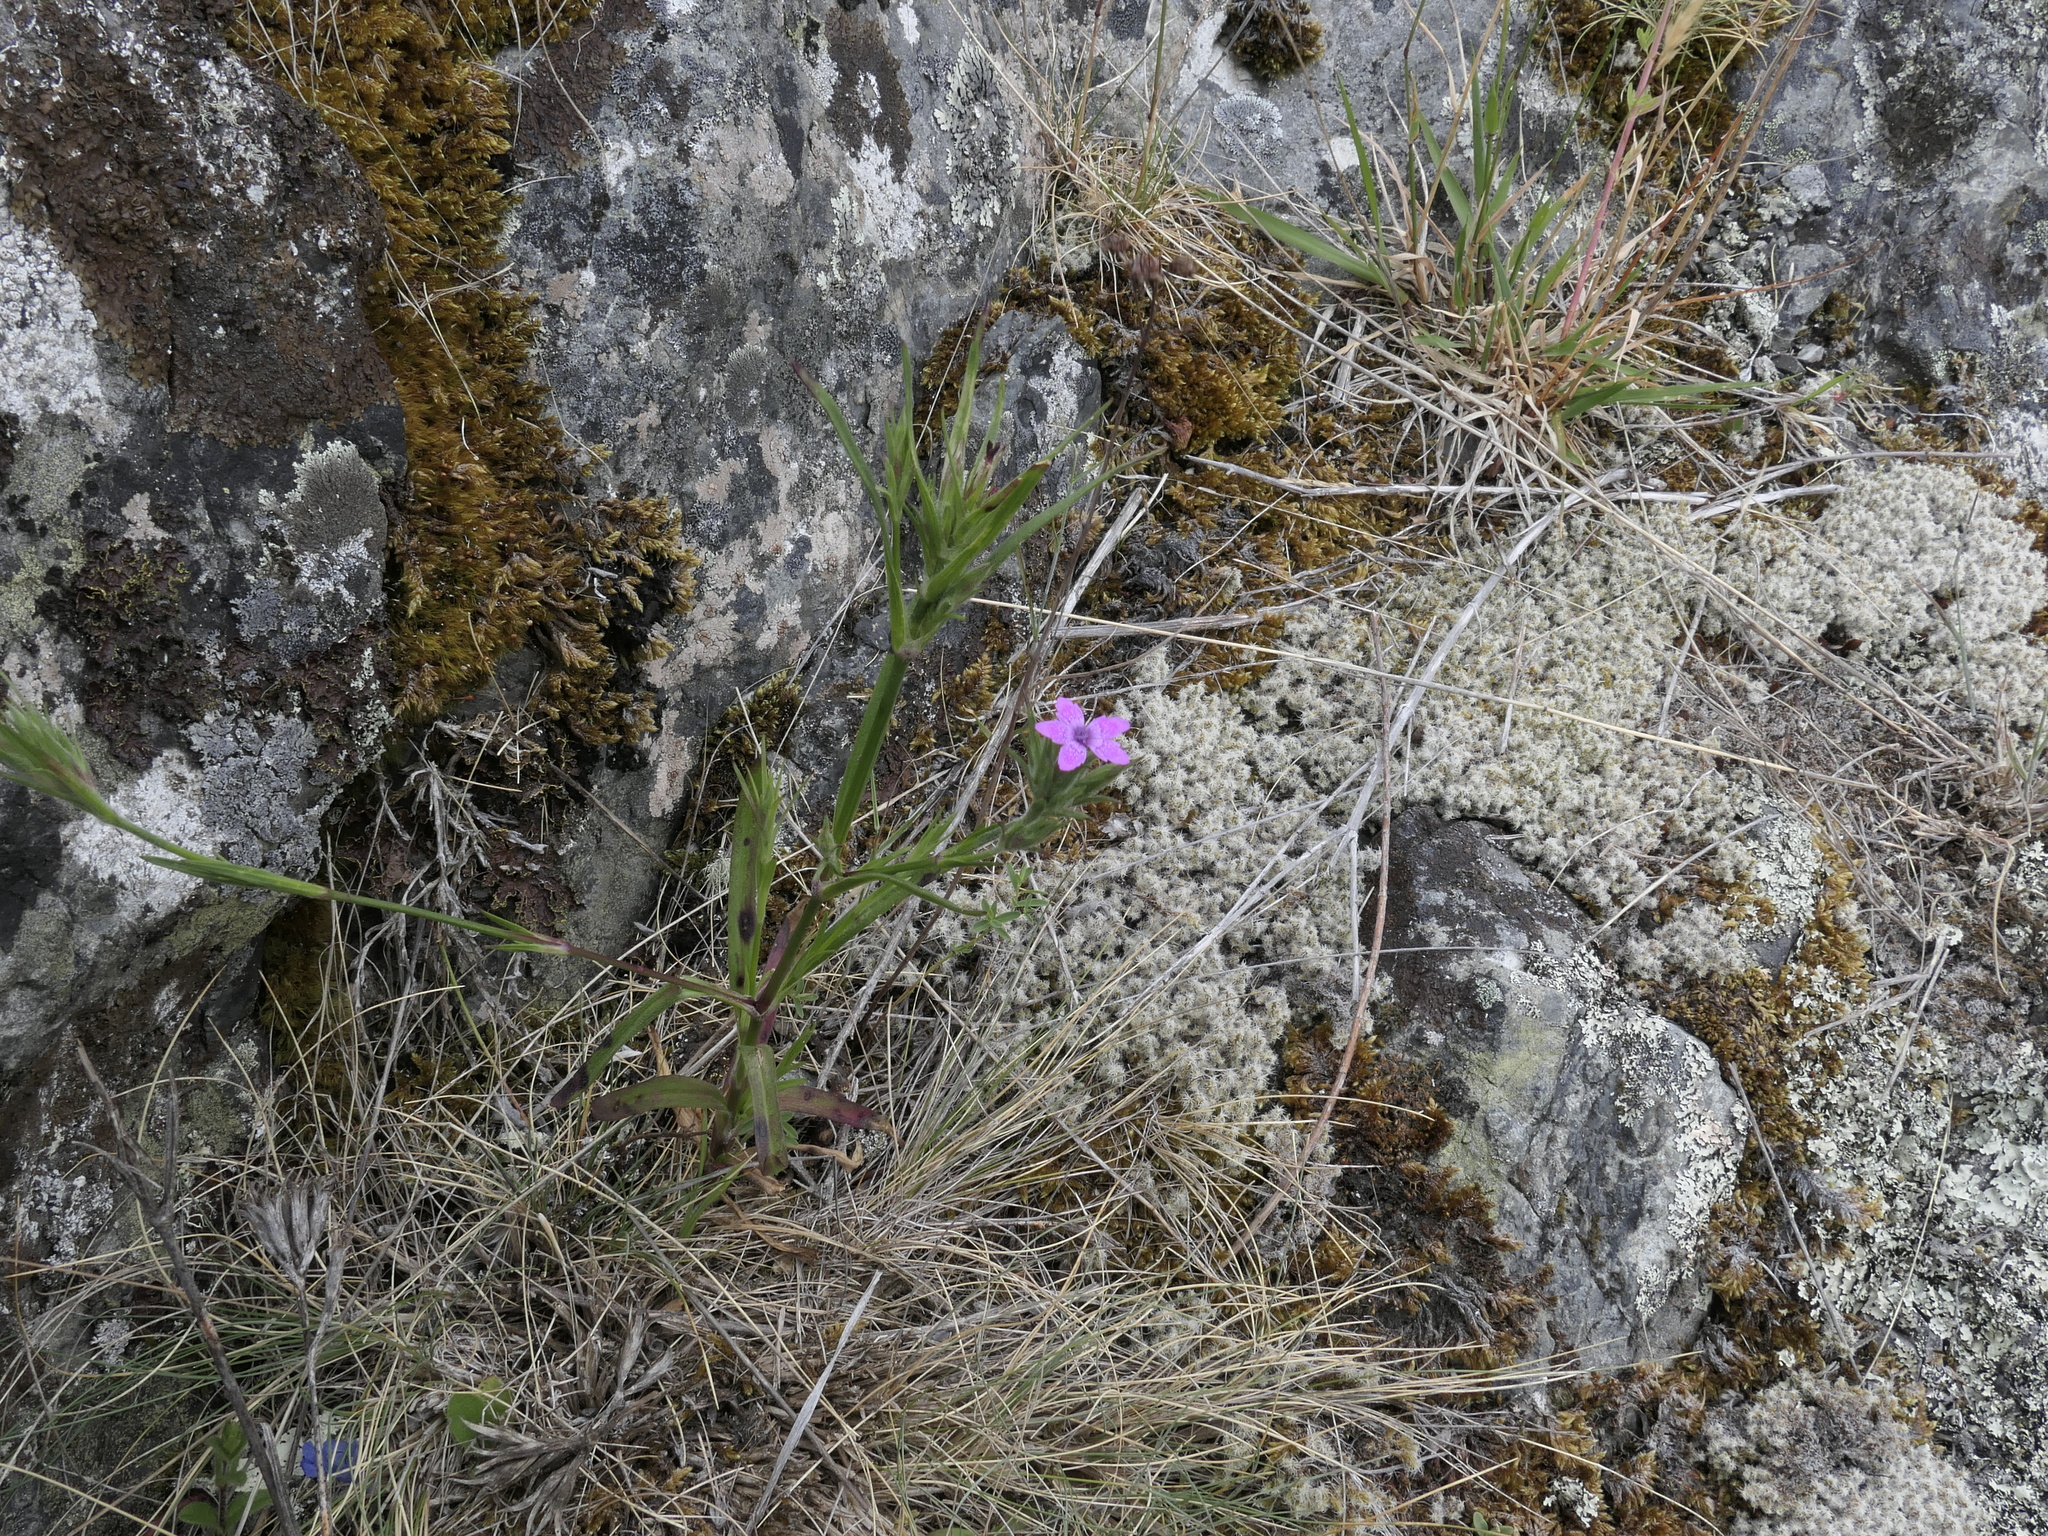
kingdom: Plantae
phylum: Tracheophyta
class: Magnoliopsida
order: Caryophyllales
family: Caryophyllaceae
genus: Dianthus
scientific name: Dianthus armeria
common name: Deptford pink
